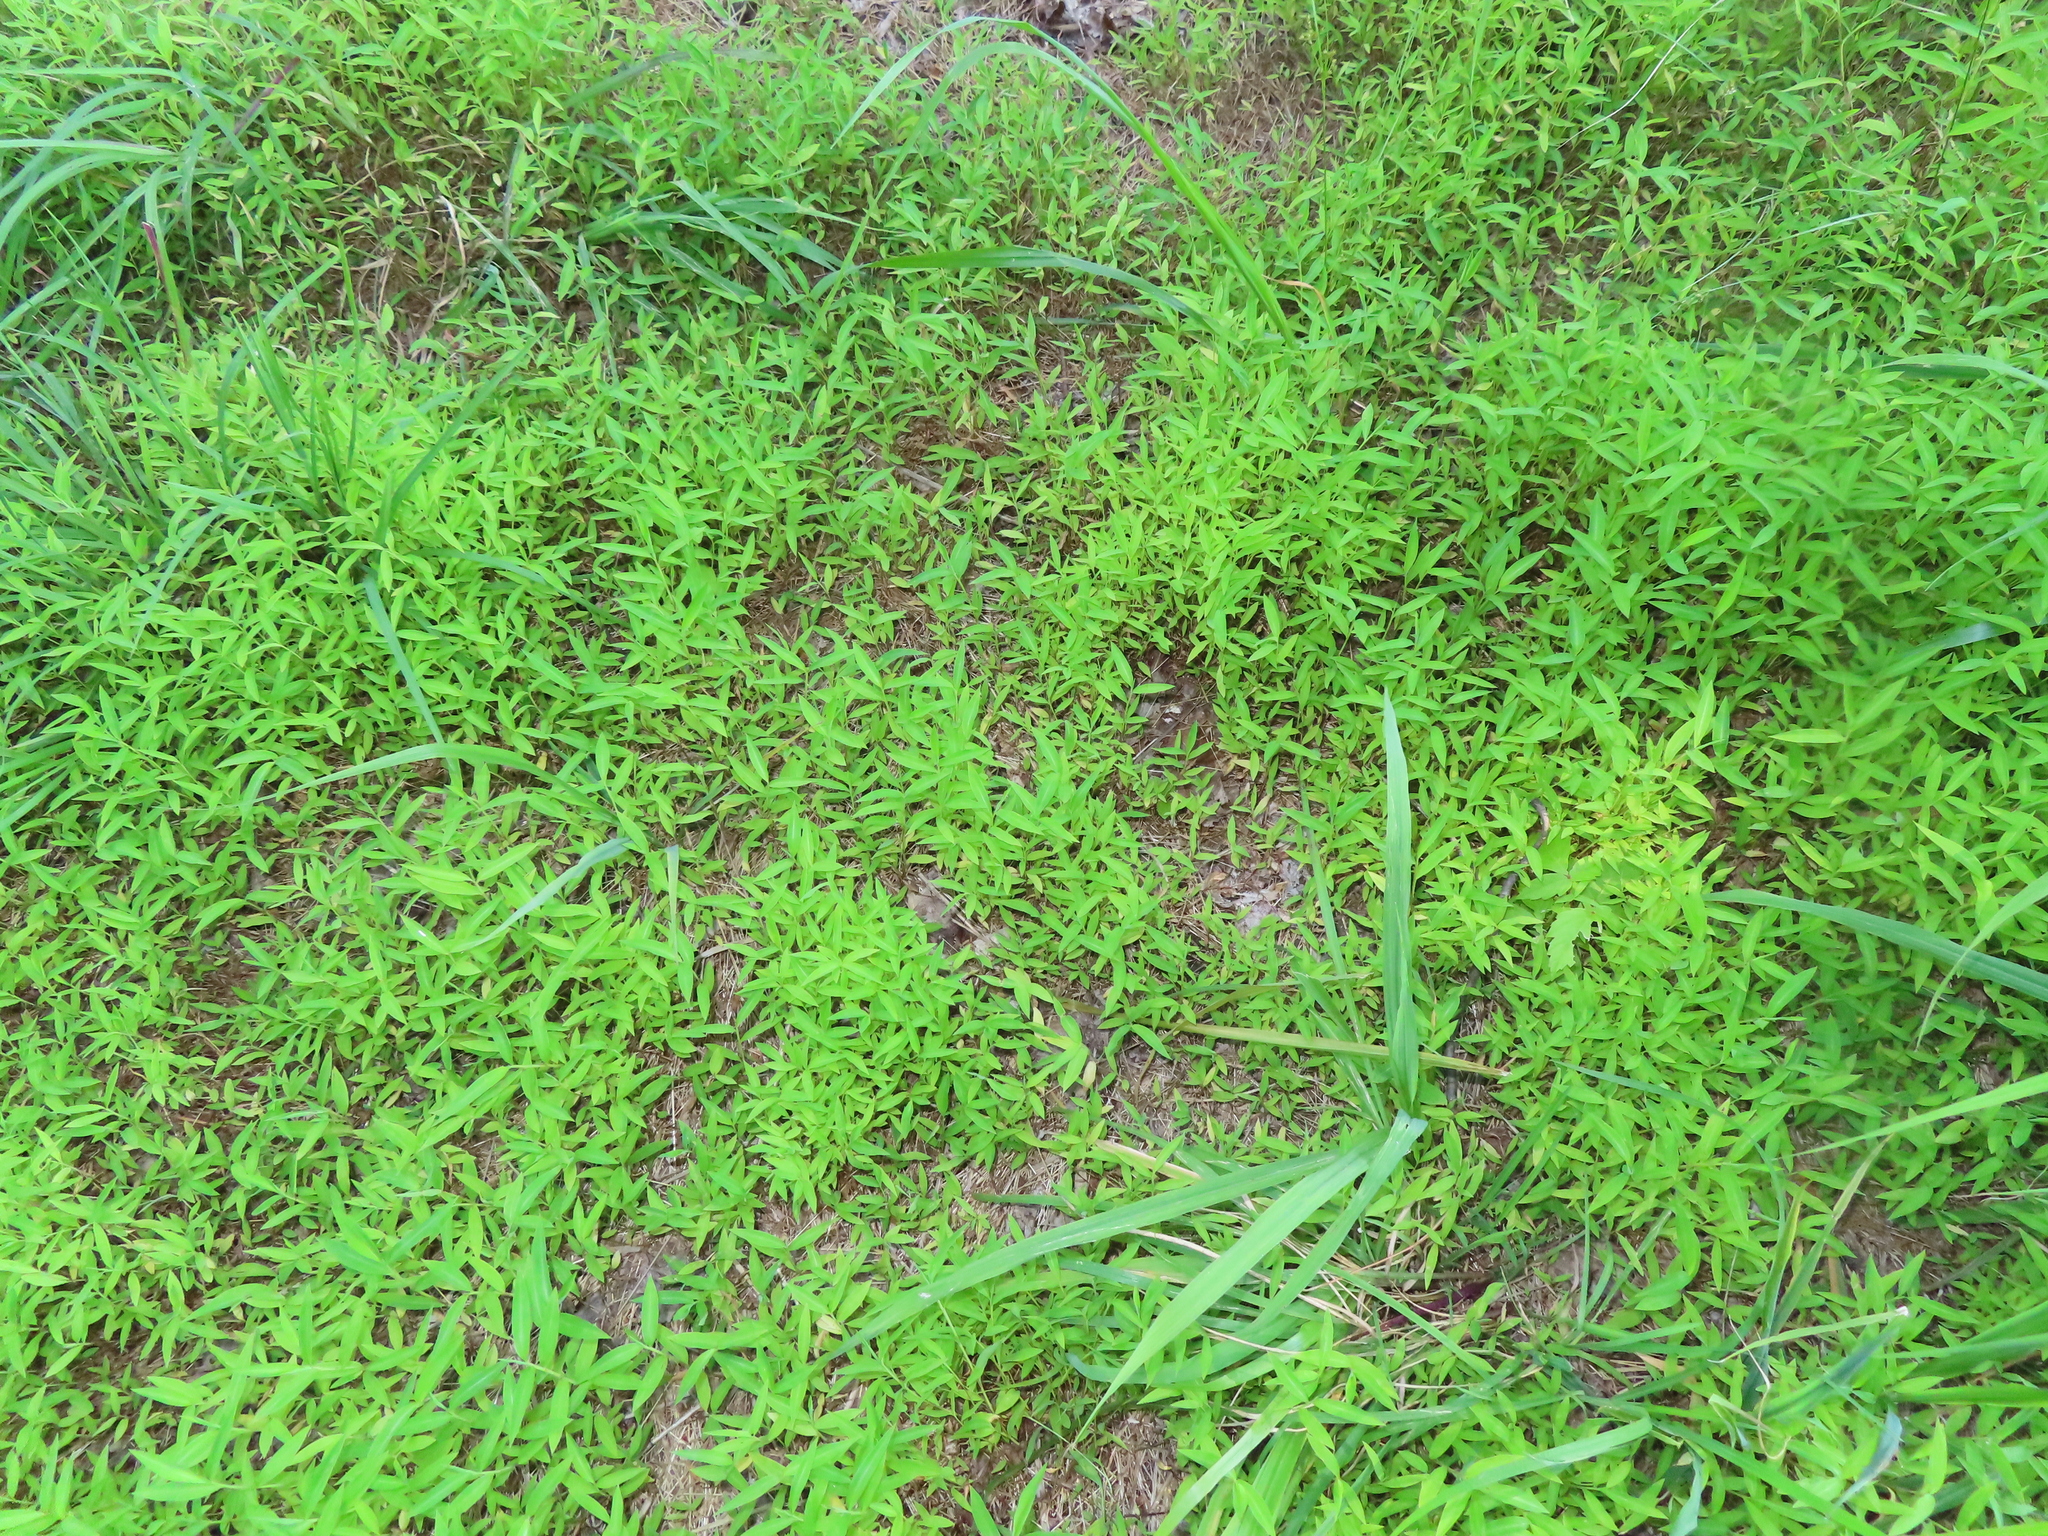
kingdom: Plantae
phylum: Tracheophyta
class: Liliopsida
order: Poales
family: Poaceae
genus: Microstegium
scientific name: Microstegium vimineum
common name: Japanese stiltgrass
